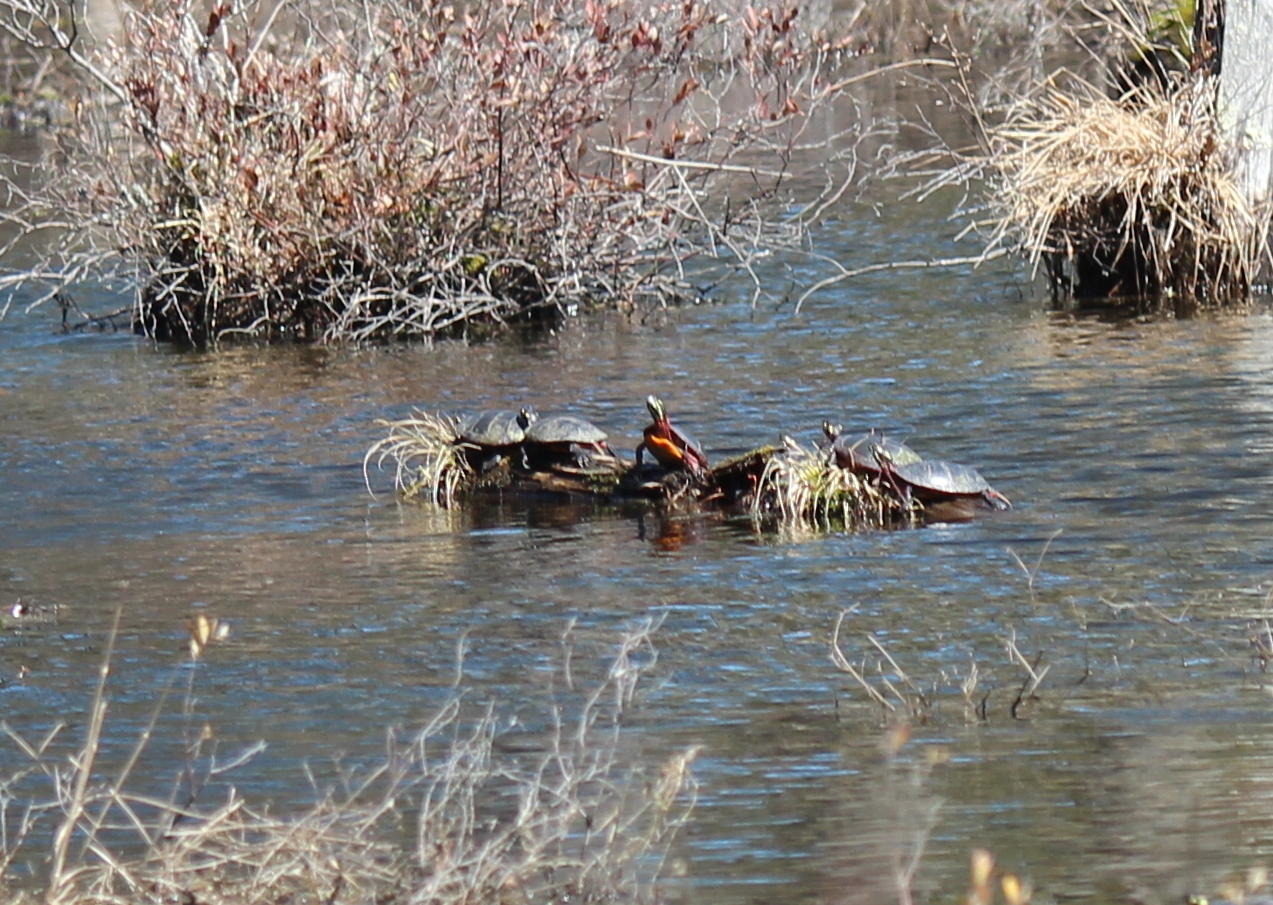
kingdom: Animalia
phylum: Chordata
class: Testudines
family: Emydidae
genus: Chrysemys
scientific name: Chrysemys picta
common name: Painted turtle
